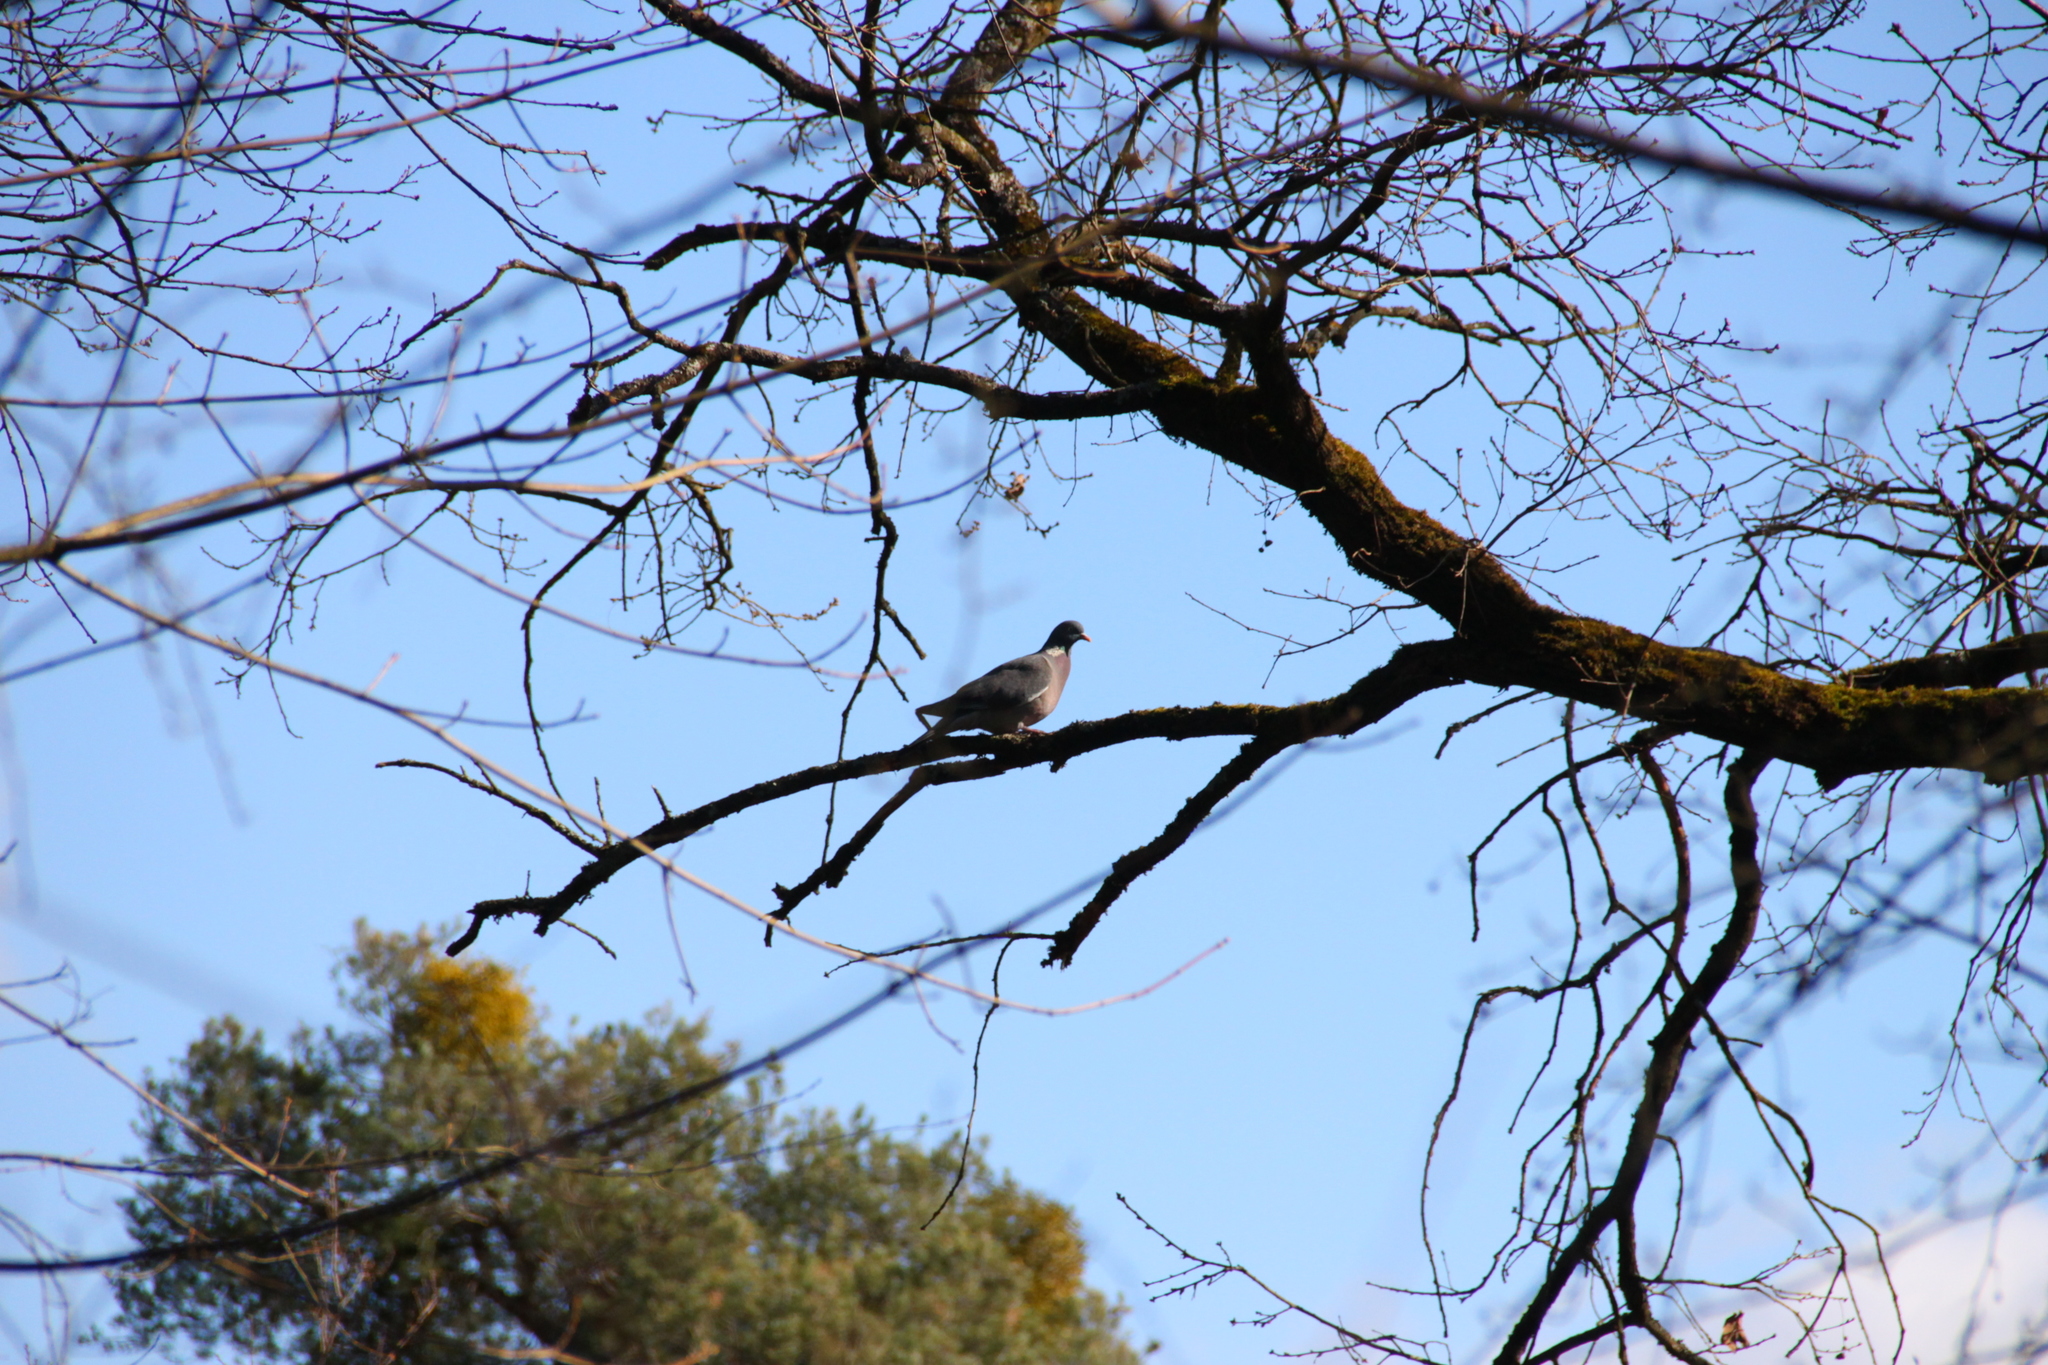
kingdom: Animalia
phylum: Chordata
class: Aves
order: Columbiformes
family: Columbidae
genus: Columba
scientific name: Columba palumbus
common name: Common wood pigeon
